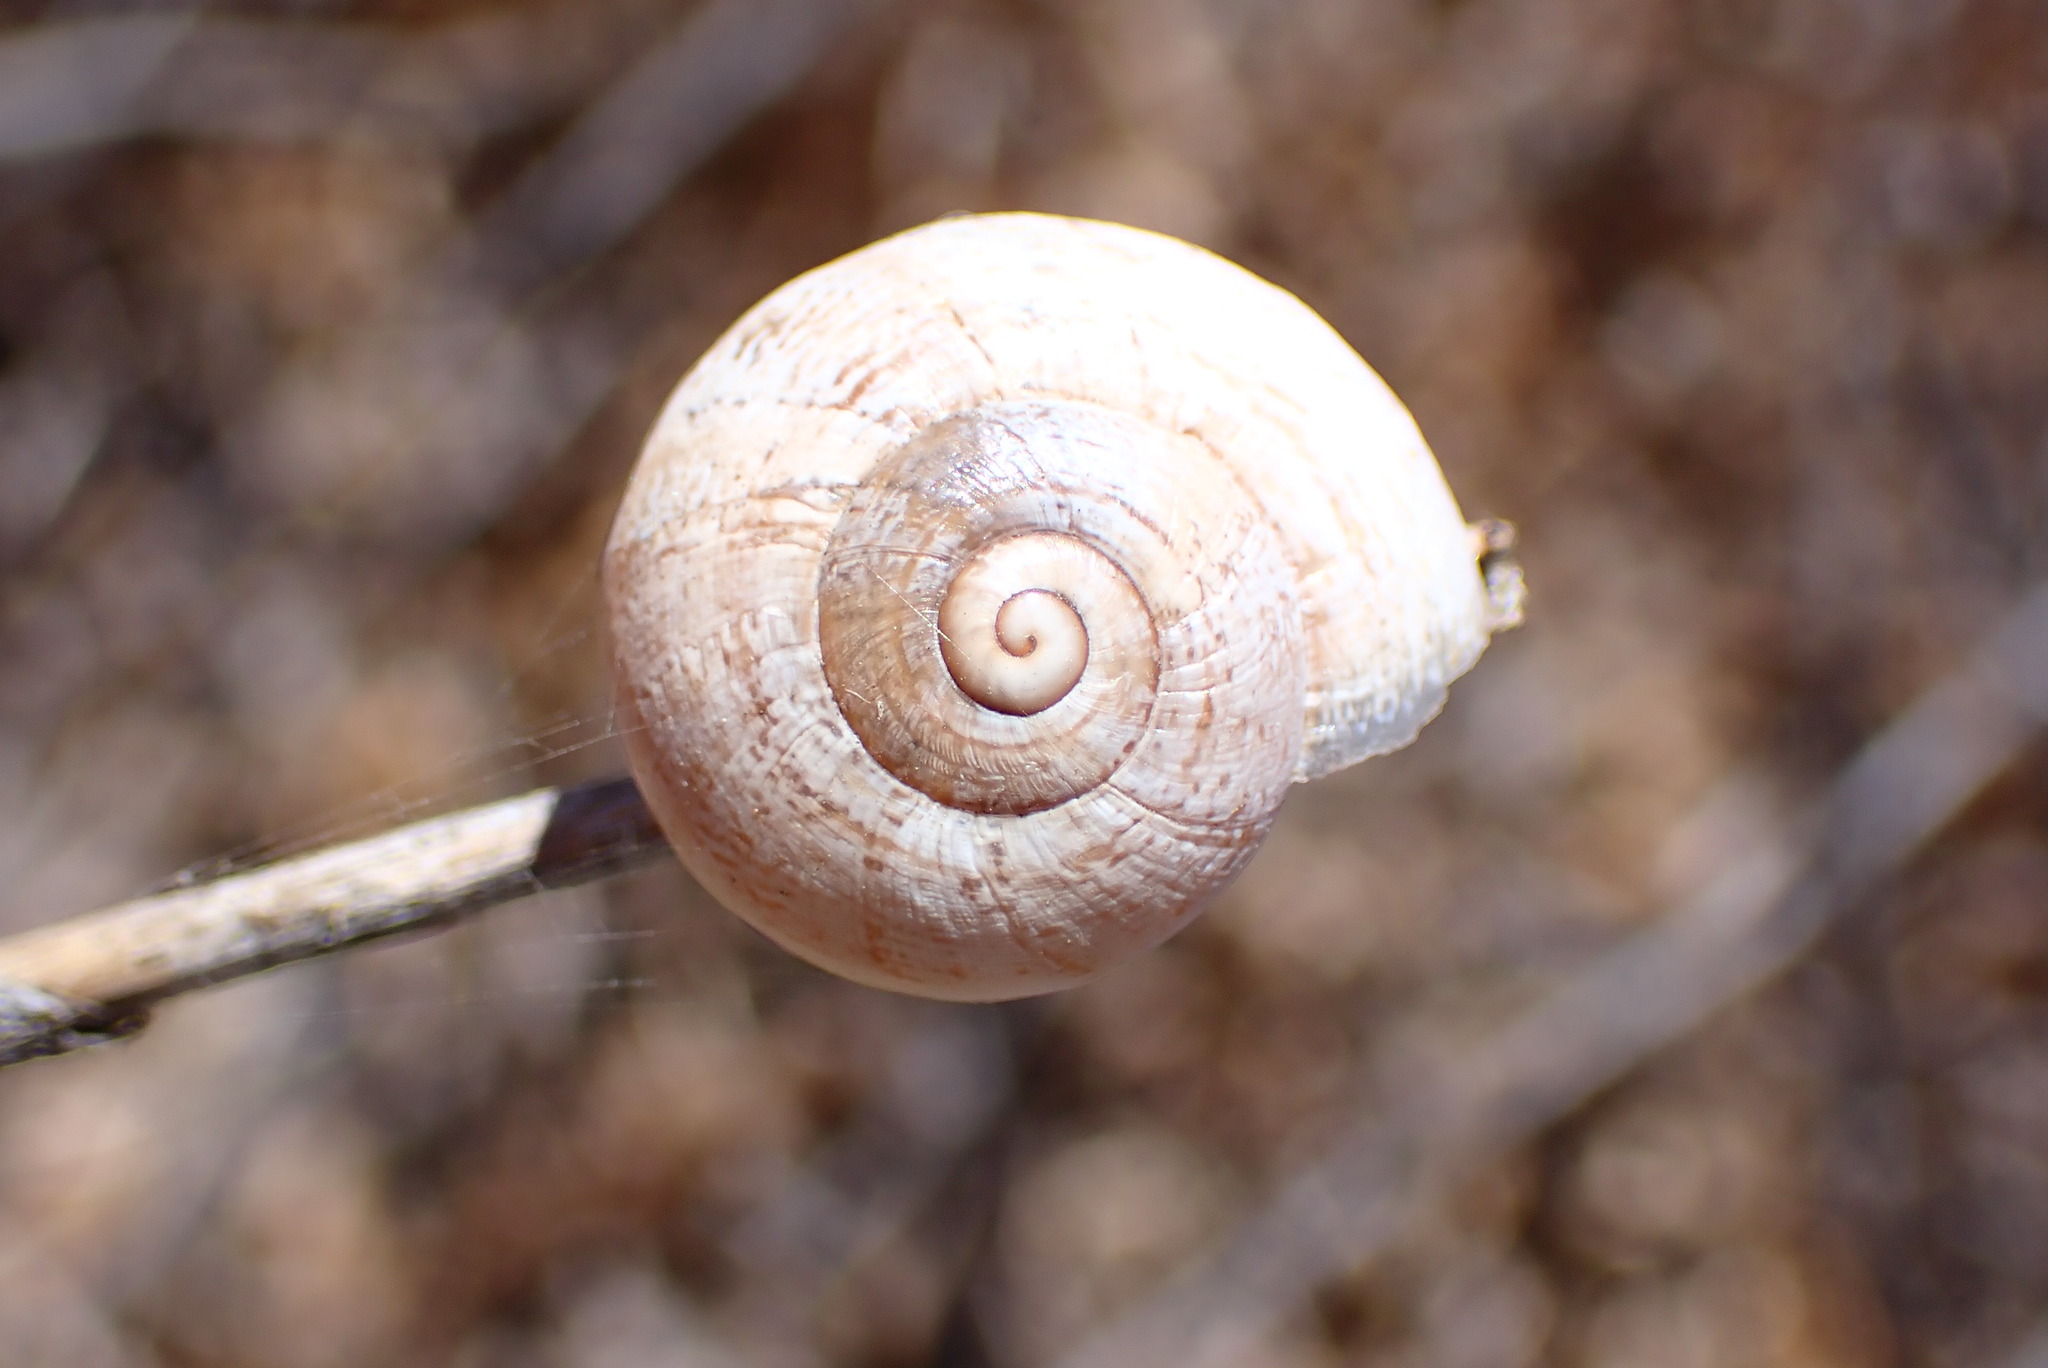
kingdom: Animalia
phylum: Mollusca
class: Gastropoda
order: Stylommatophora
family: Helicidae
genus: Otala
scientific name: Otala lactea
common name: Milk snail
